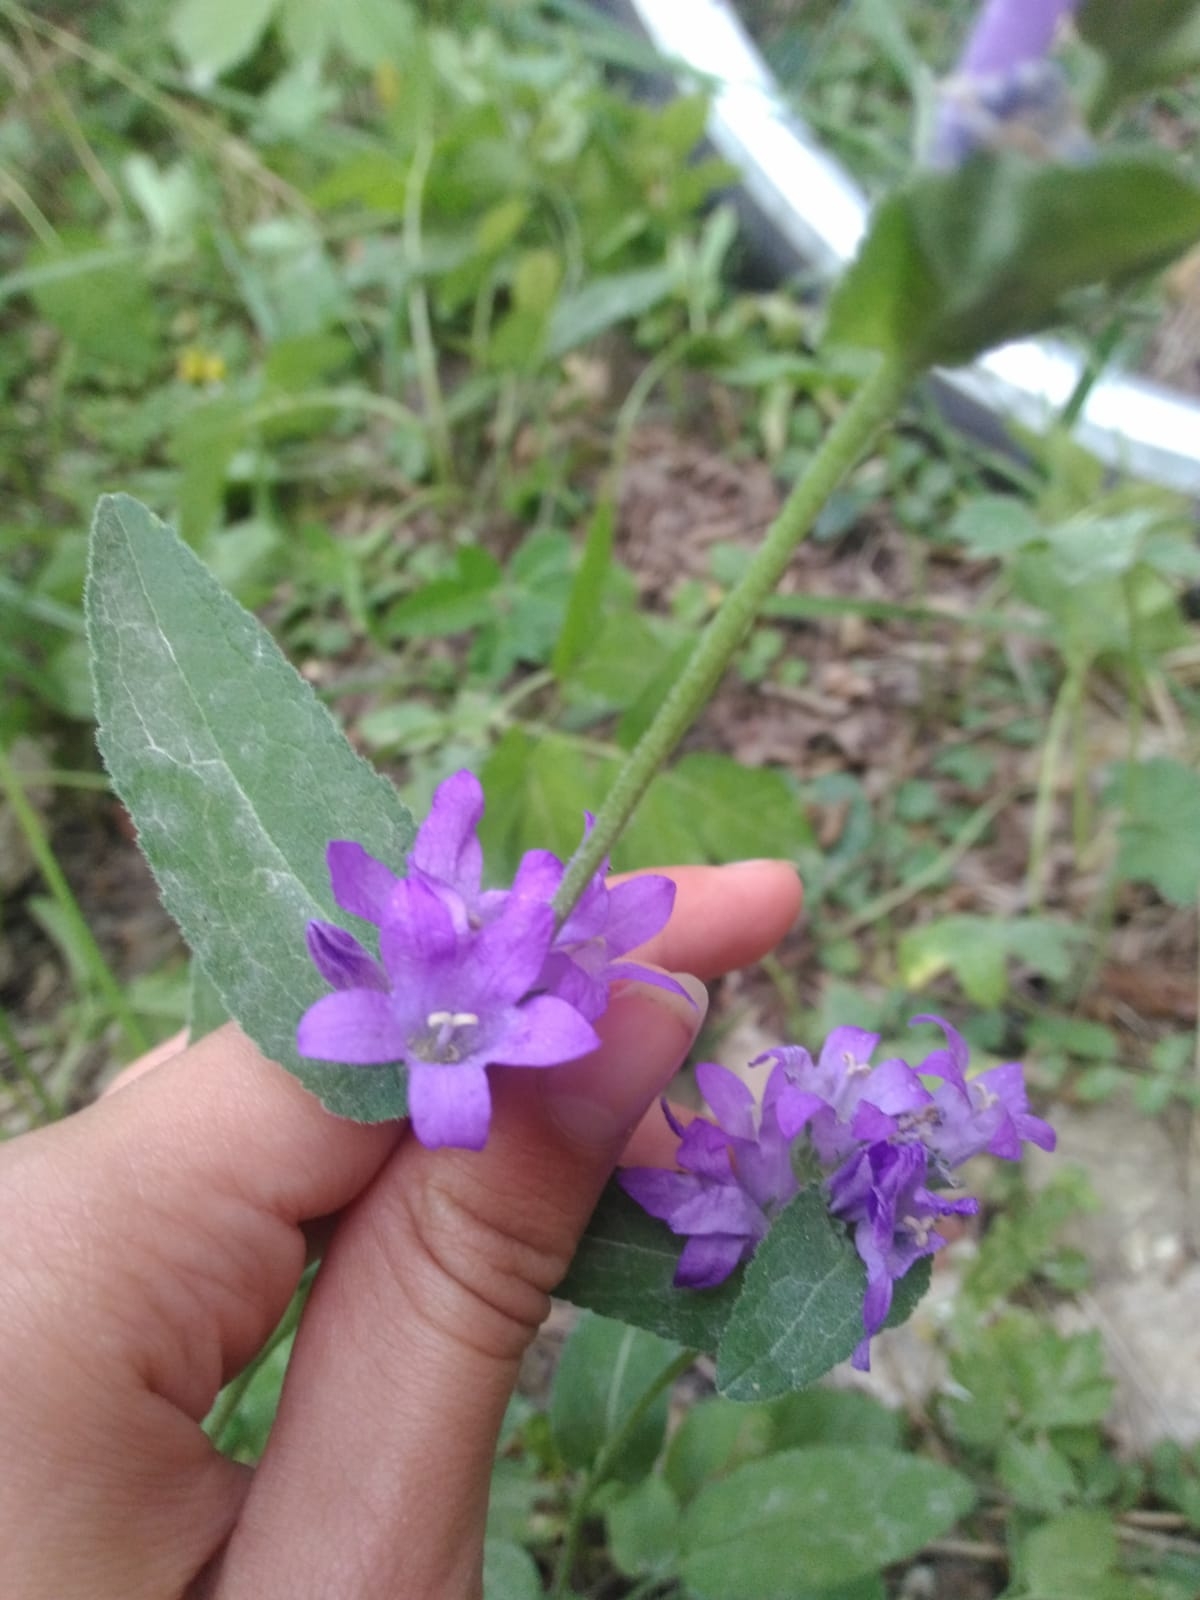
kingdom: Plantae
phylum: Tracheophyta
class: Magnoliopsida
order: Asterales
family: Campanulaceae
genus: Campanula
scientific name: Campanula glomerata
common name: Clustered bellflower
